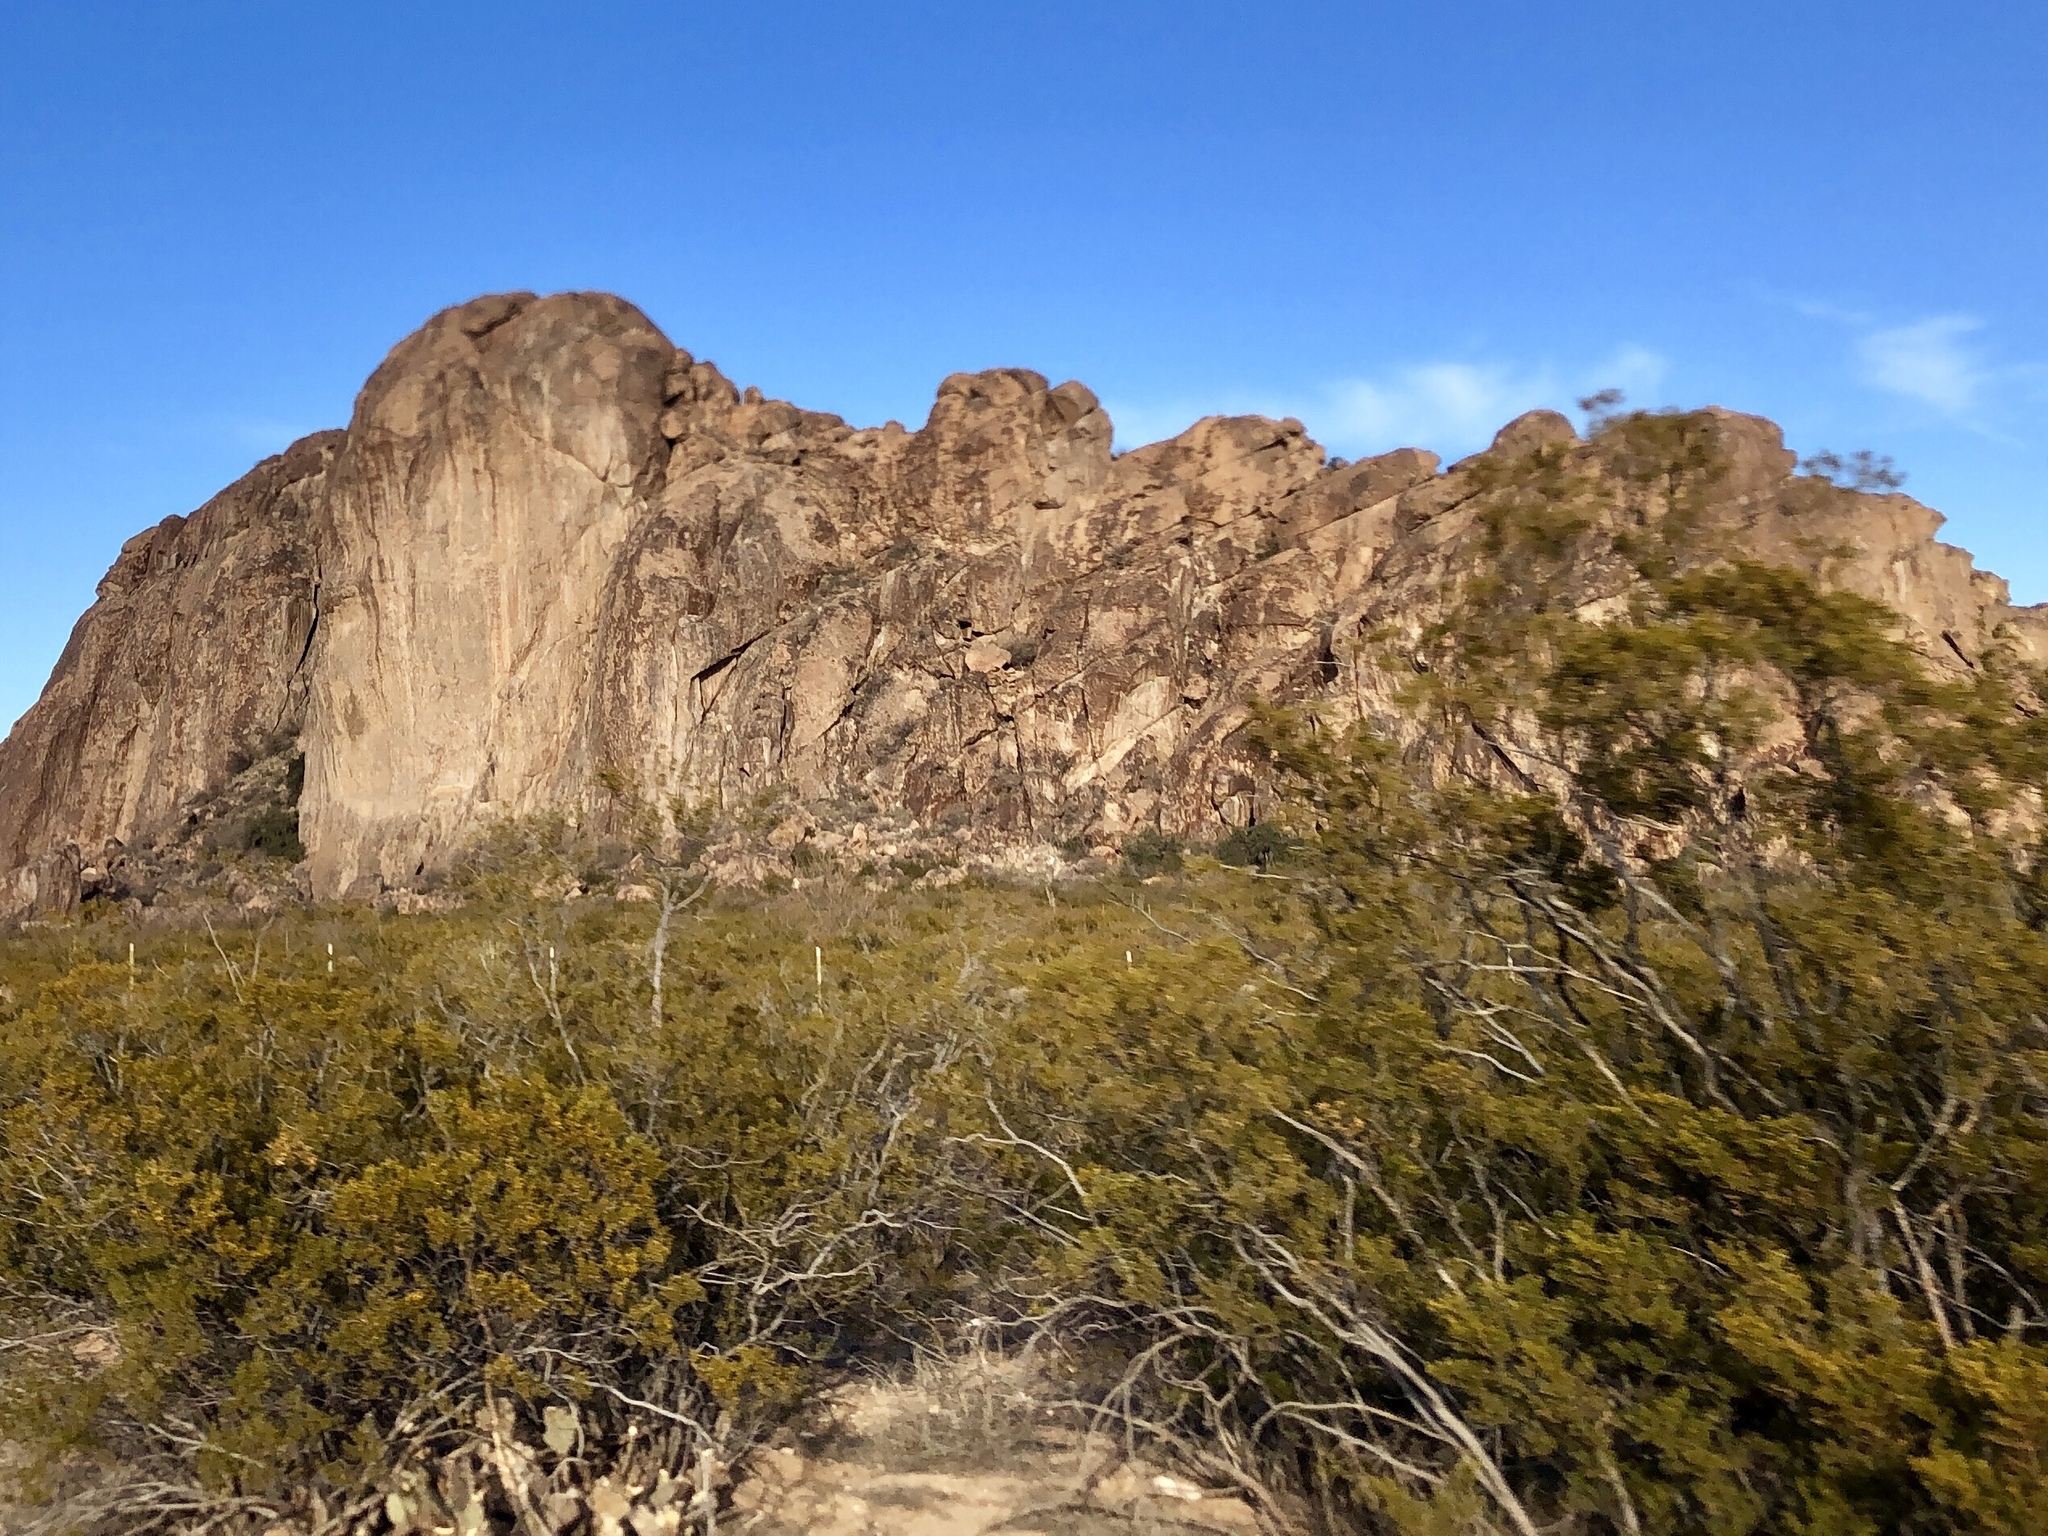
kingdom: Plantae
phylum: Tracheophyta
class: Magnoliopsida
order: Zygophyllales
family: Zygophyllaceae
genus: Larrea
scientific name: Larrea tridentata
